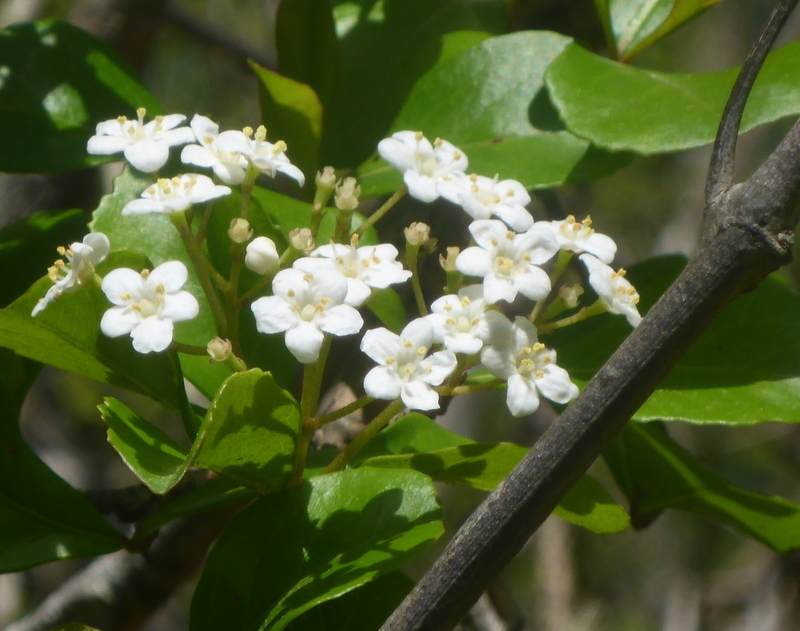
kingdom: Plantae
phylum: Tracheophyta
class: Magnoliopsida
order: Dipsacales
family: Viburnaceae
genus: Viburnum
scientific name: Viburnum obovatum
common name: Walter's viburnum
